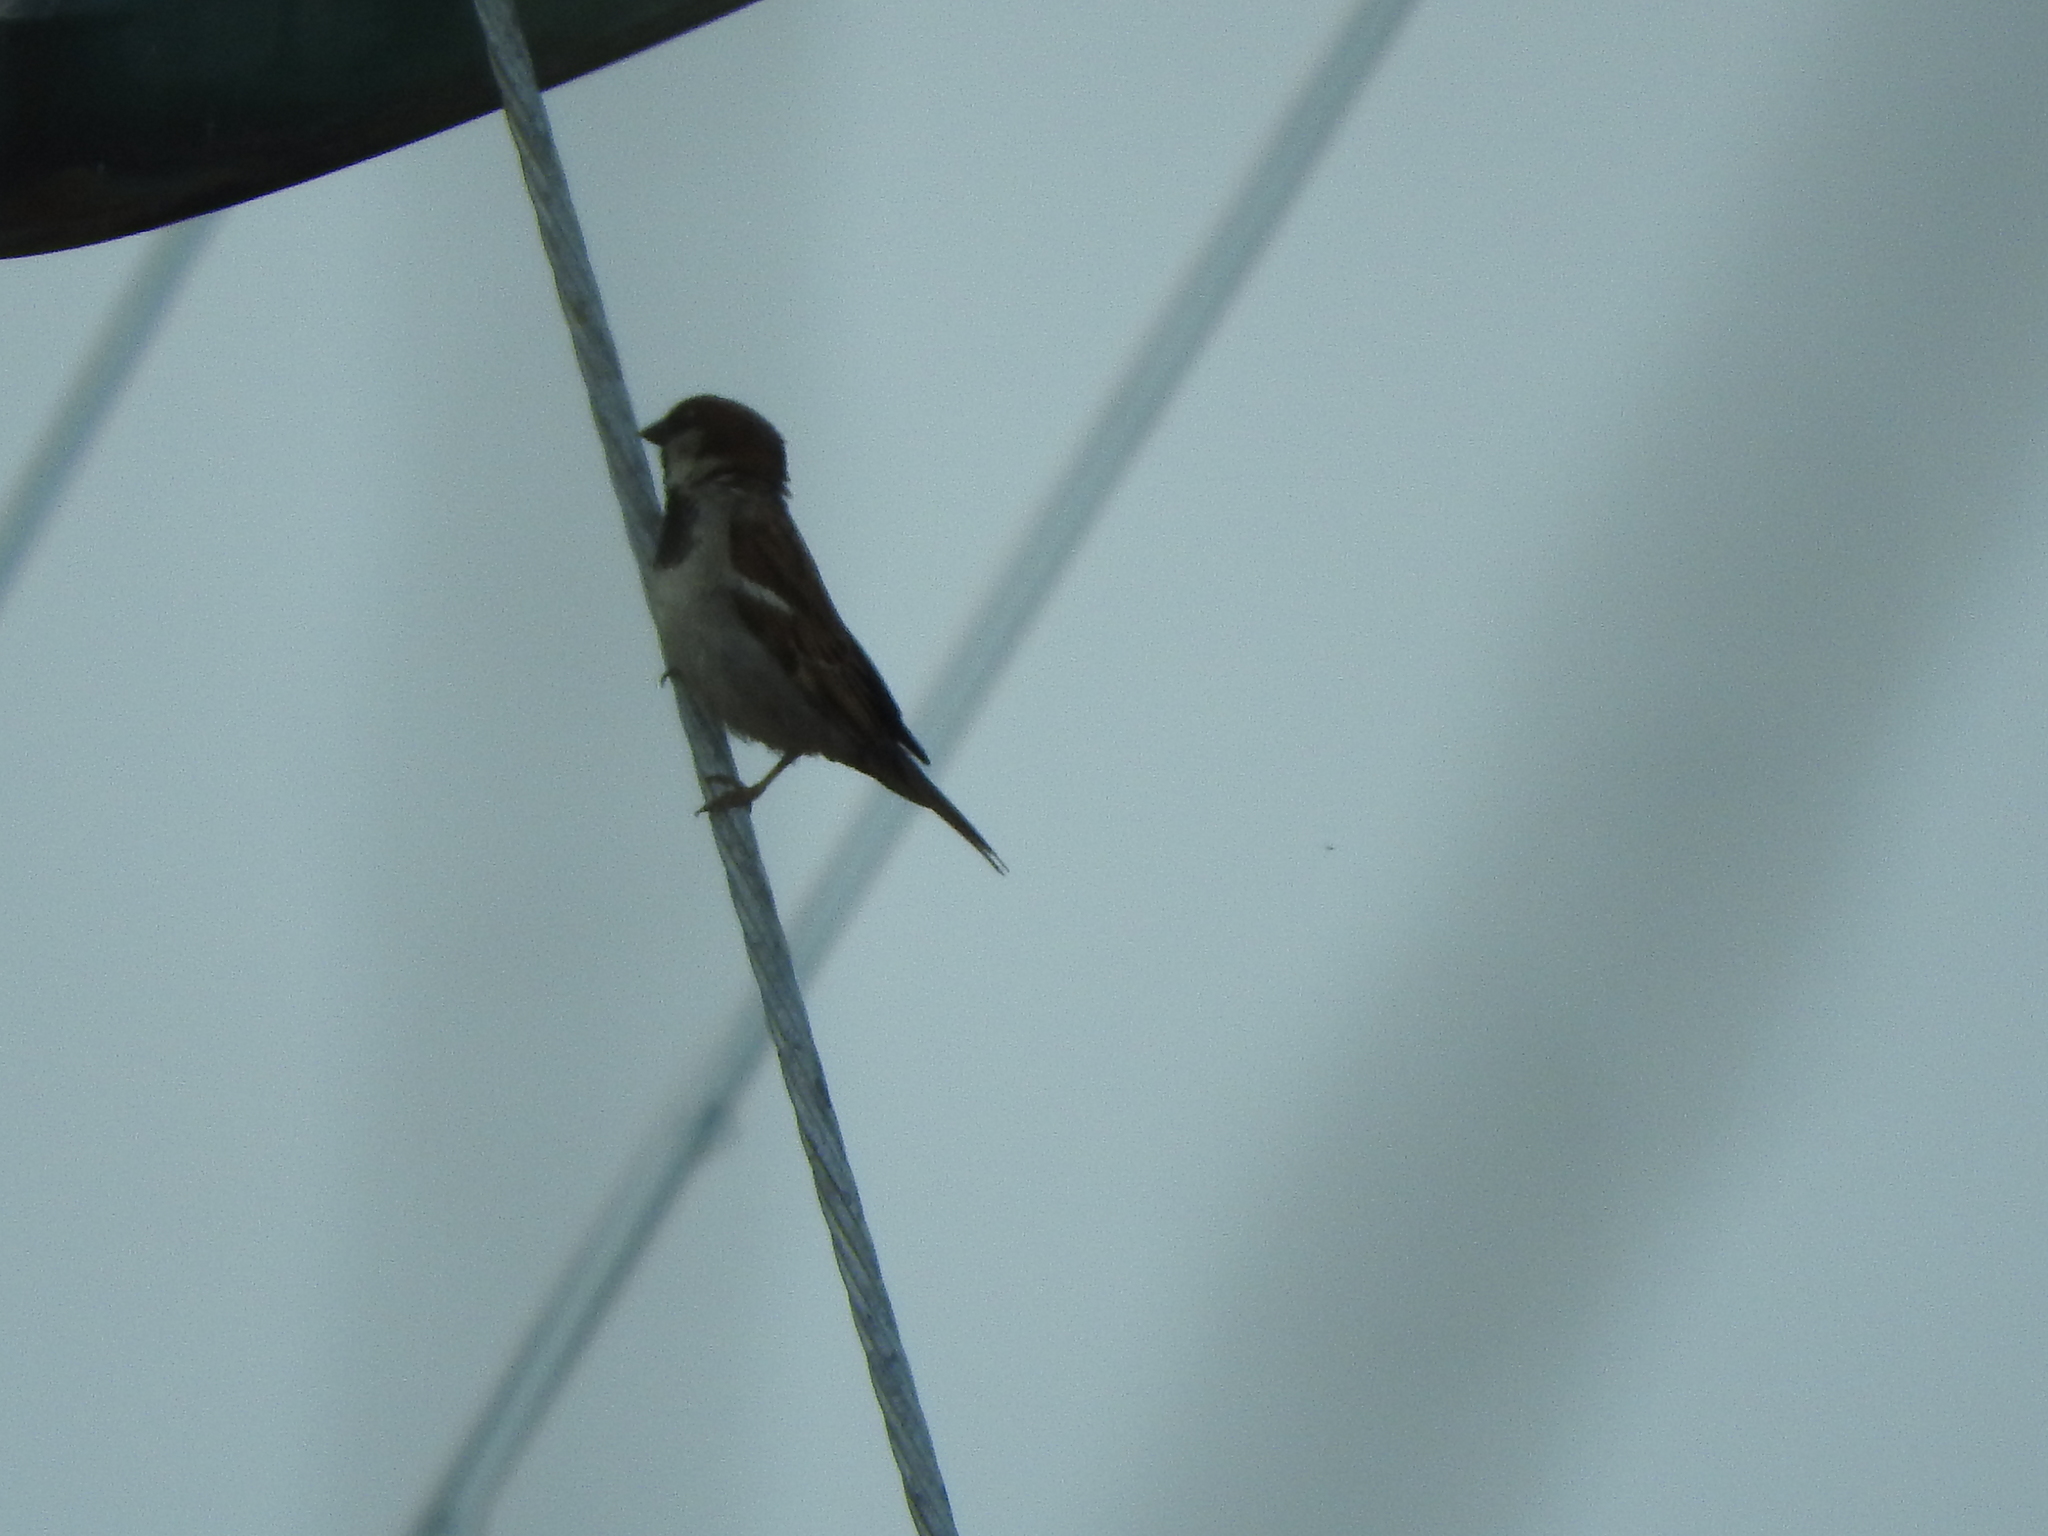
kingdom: Animalia
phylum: Chordata
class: Aves
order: Passeriformes
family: Passeridae
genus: Passer
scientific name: Passer domesticus
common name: House sparrow
